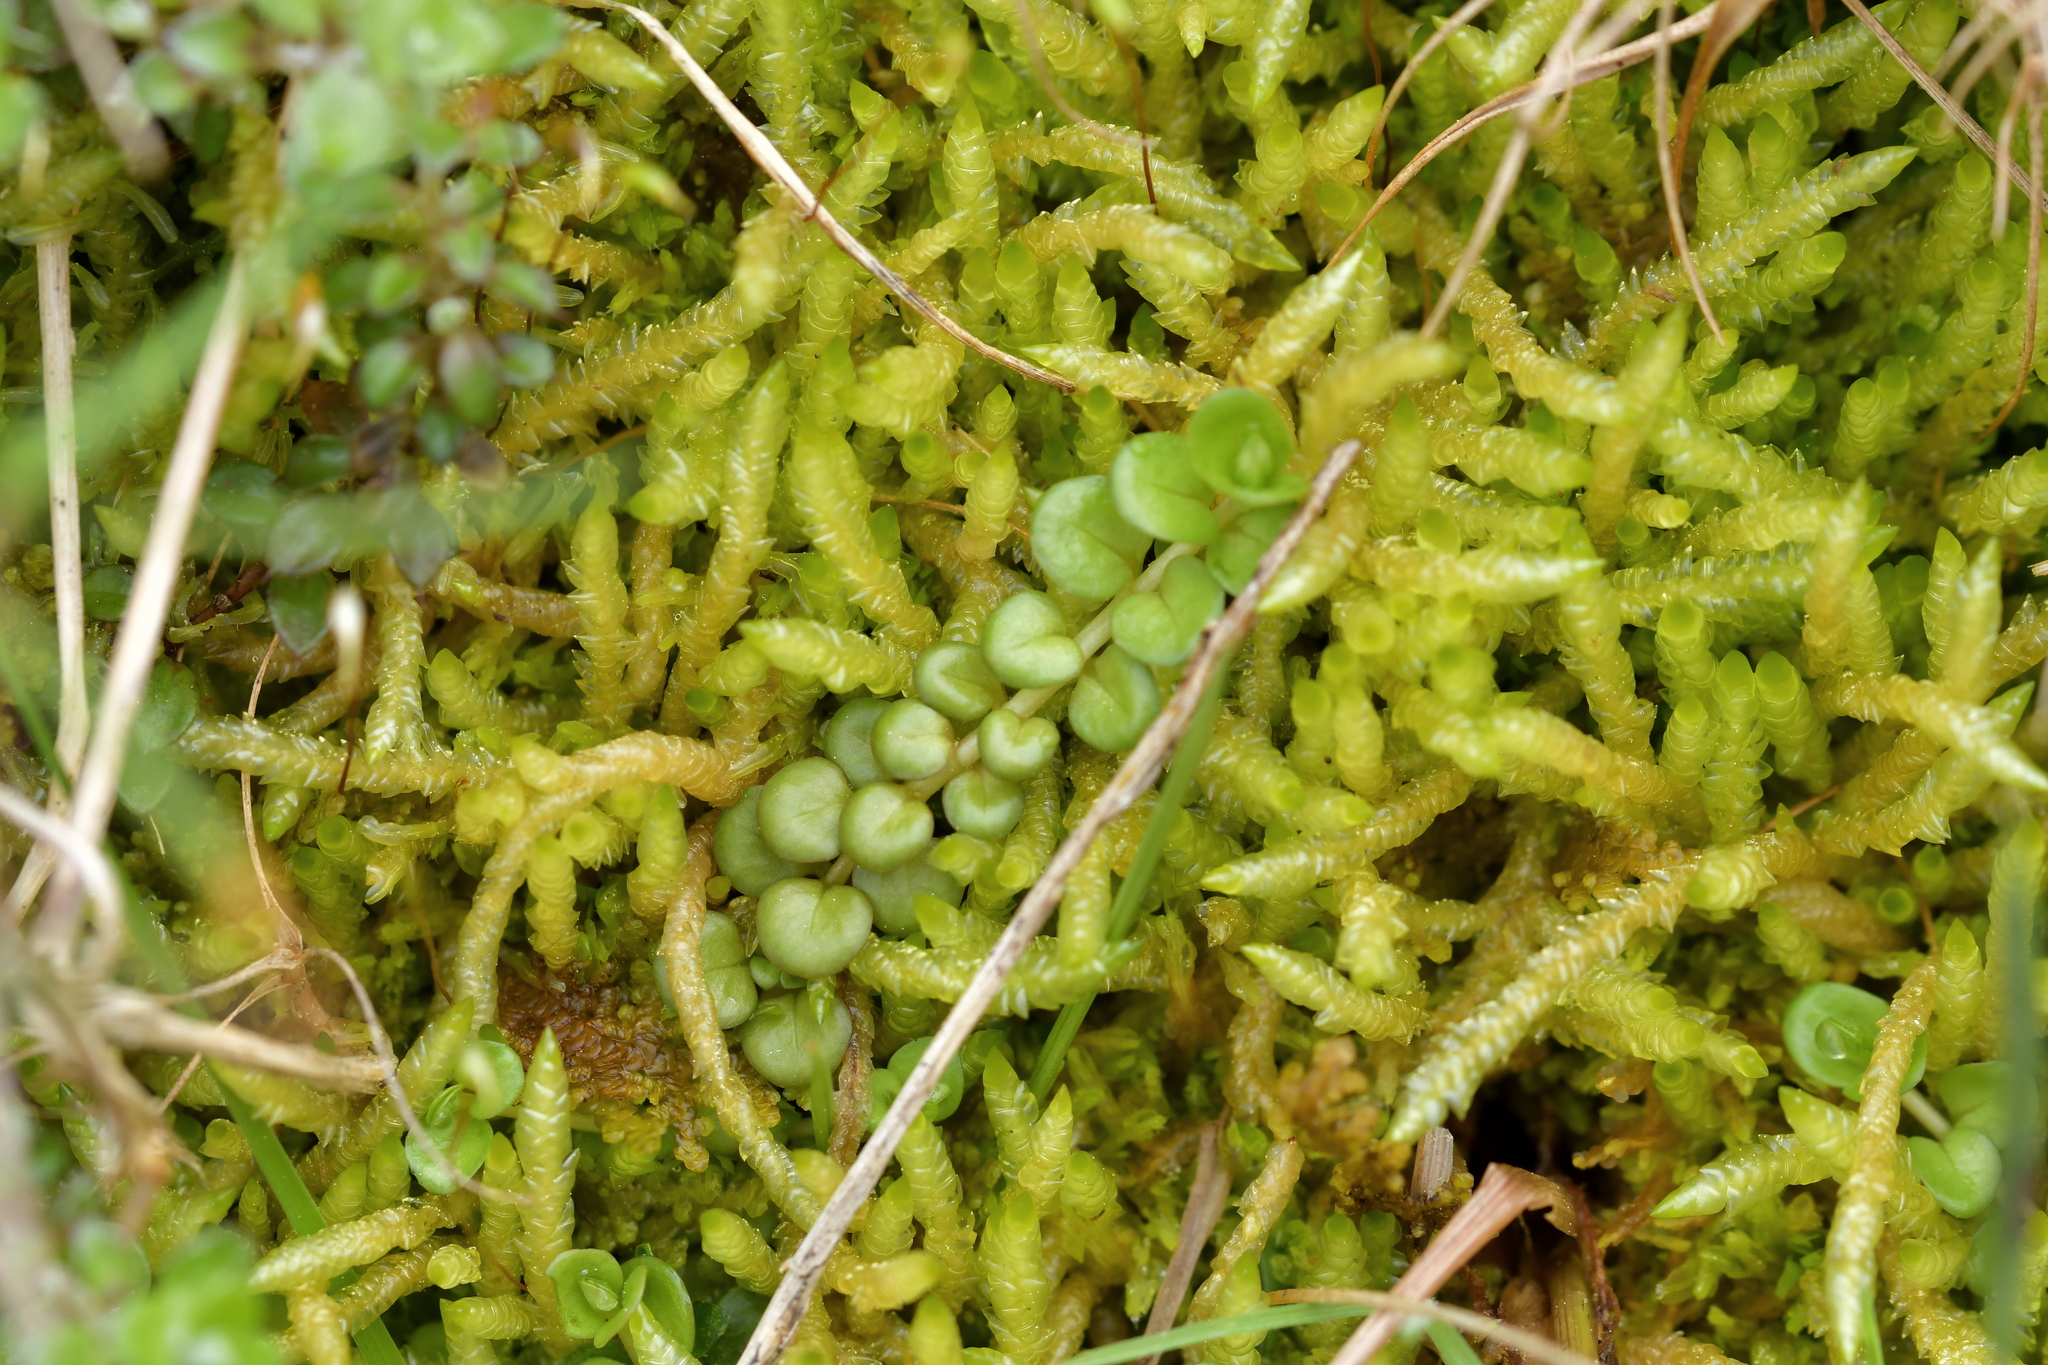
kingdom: Plantae
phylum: Tracheophyta
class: Magnoliopsida
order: Myrtales
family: Onagraceae
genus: Epilobium
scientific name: Epilobium brunnescens
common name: New zealand willowherb
